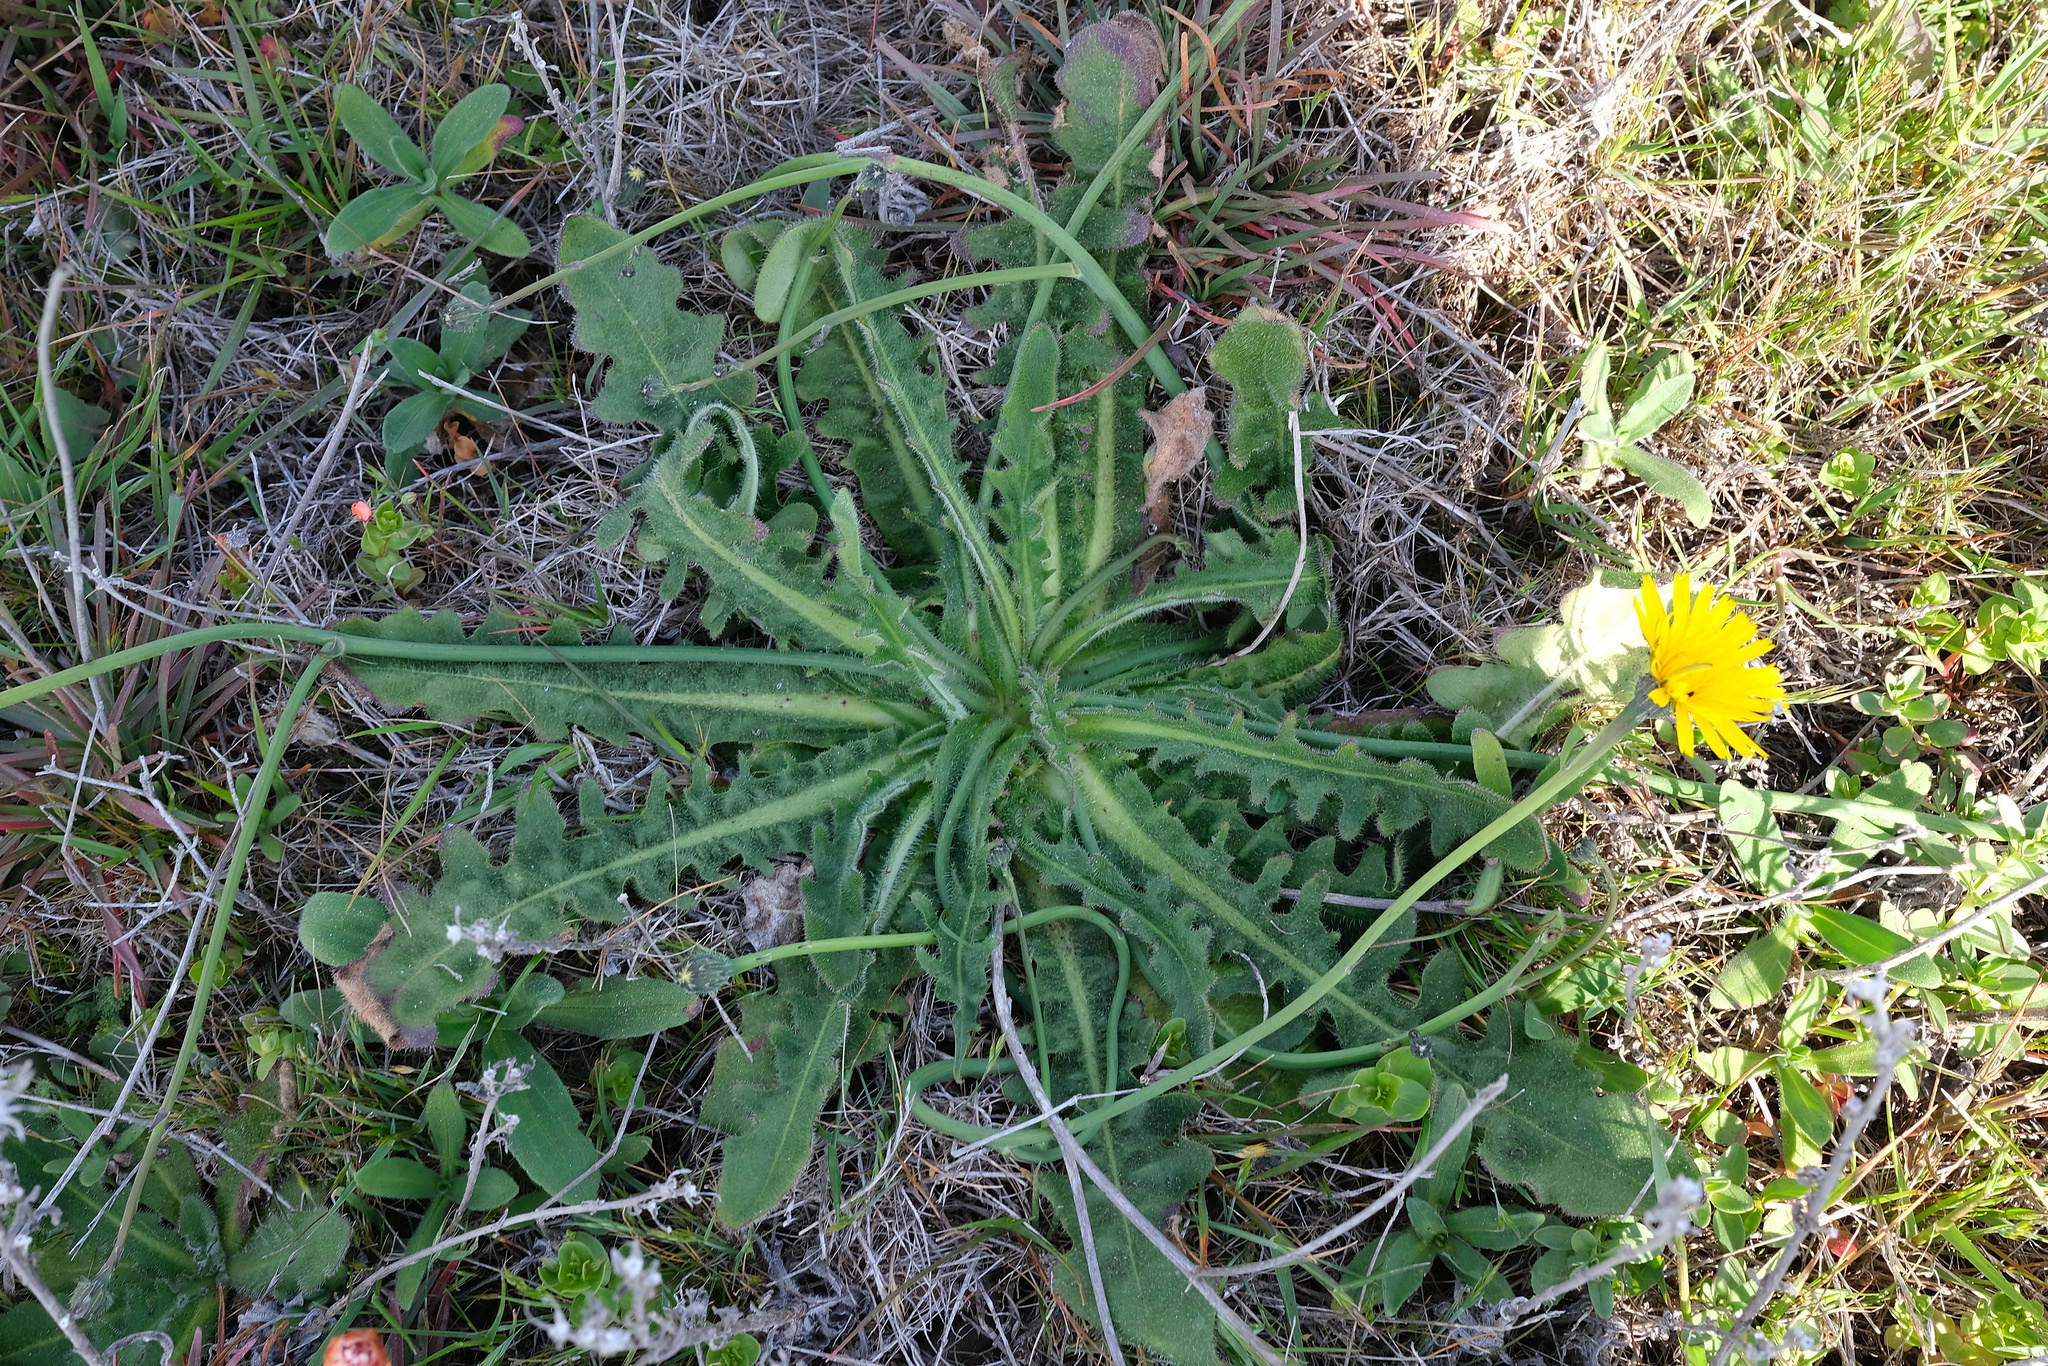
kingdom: Plantae
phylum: Tracheophyta
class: Magnoliopsida
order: Asterales
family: Asteraceae
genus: Hypochaeris
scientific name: Hypochaeris radicata
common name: Flatweed
